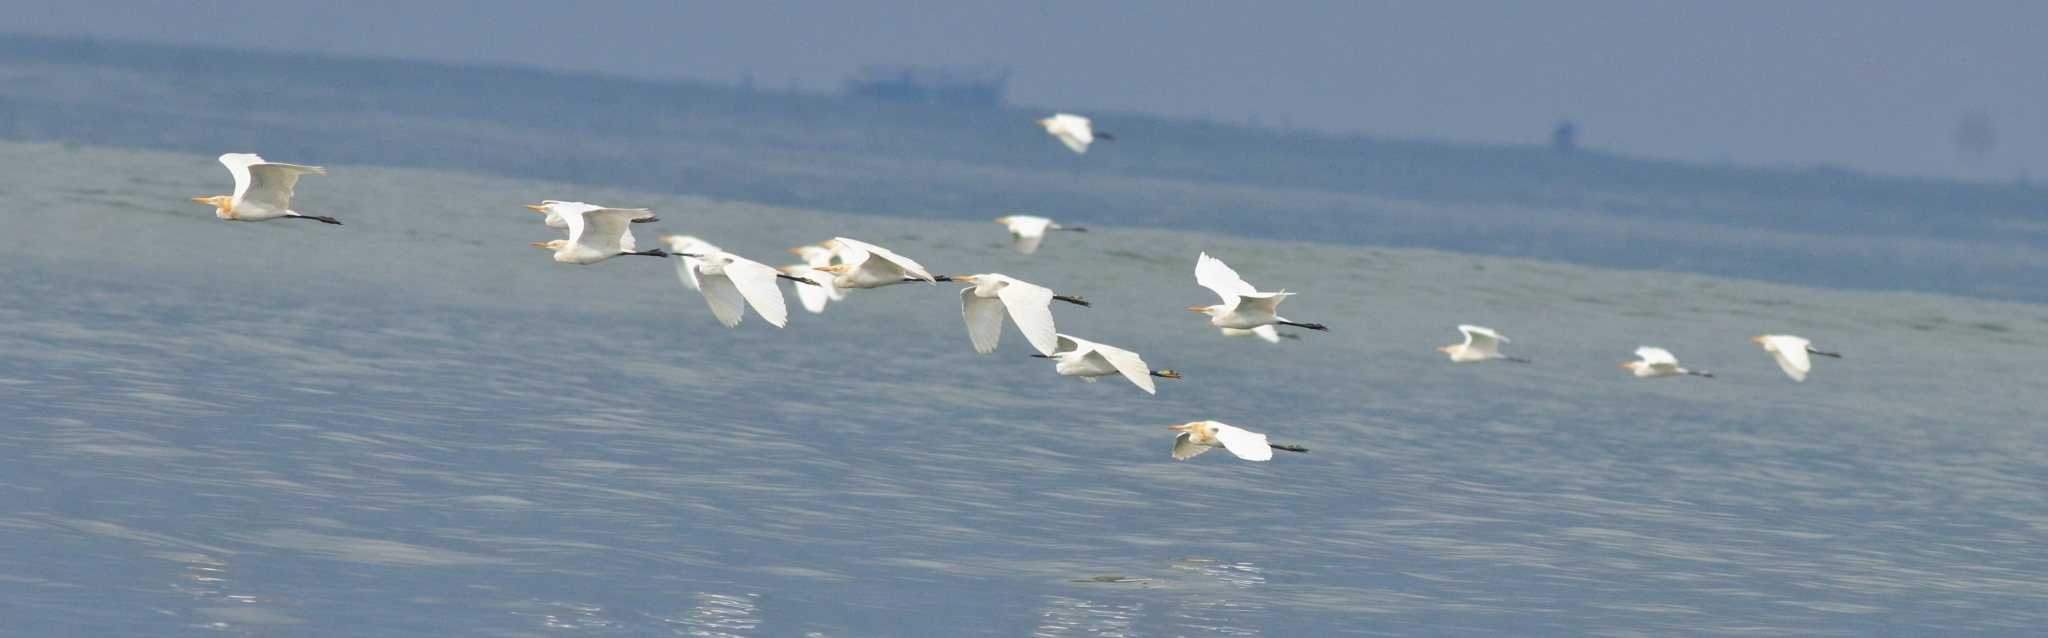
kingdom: Animalia
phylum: Chordata
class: Aves
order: Pelecaniformes
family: Ardeidae
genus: Bubulcus
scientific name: Bubulcus coromandus
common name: Eastern cattle egret
